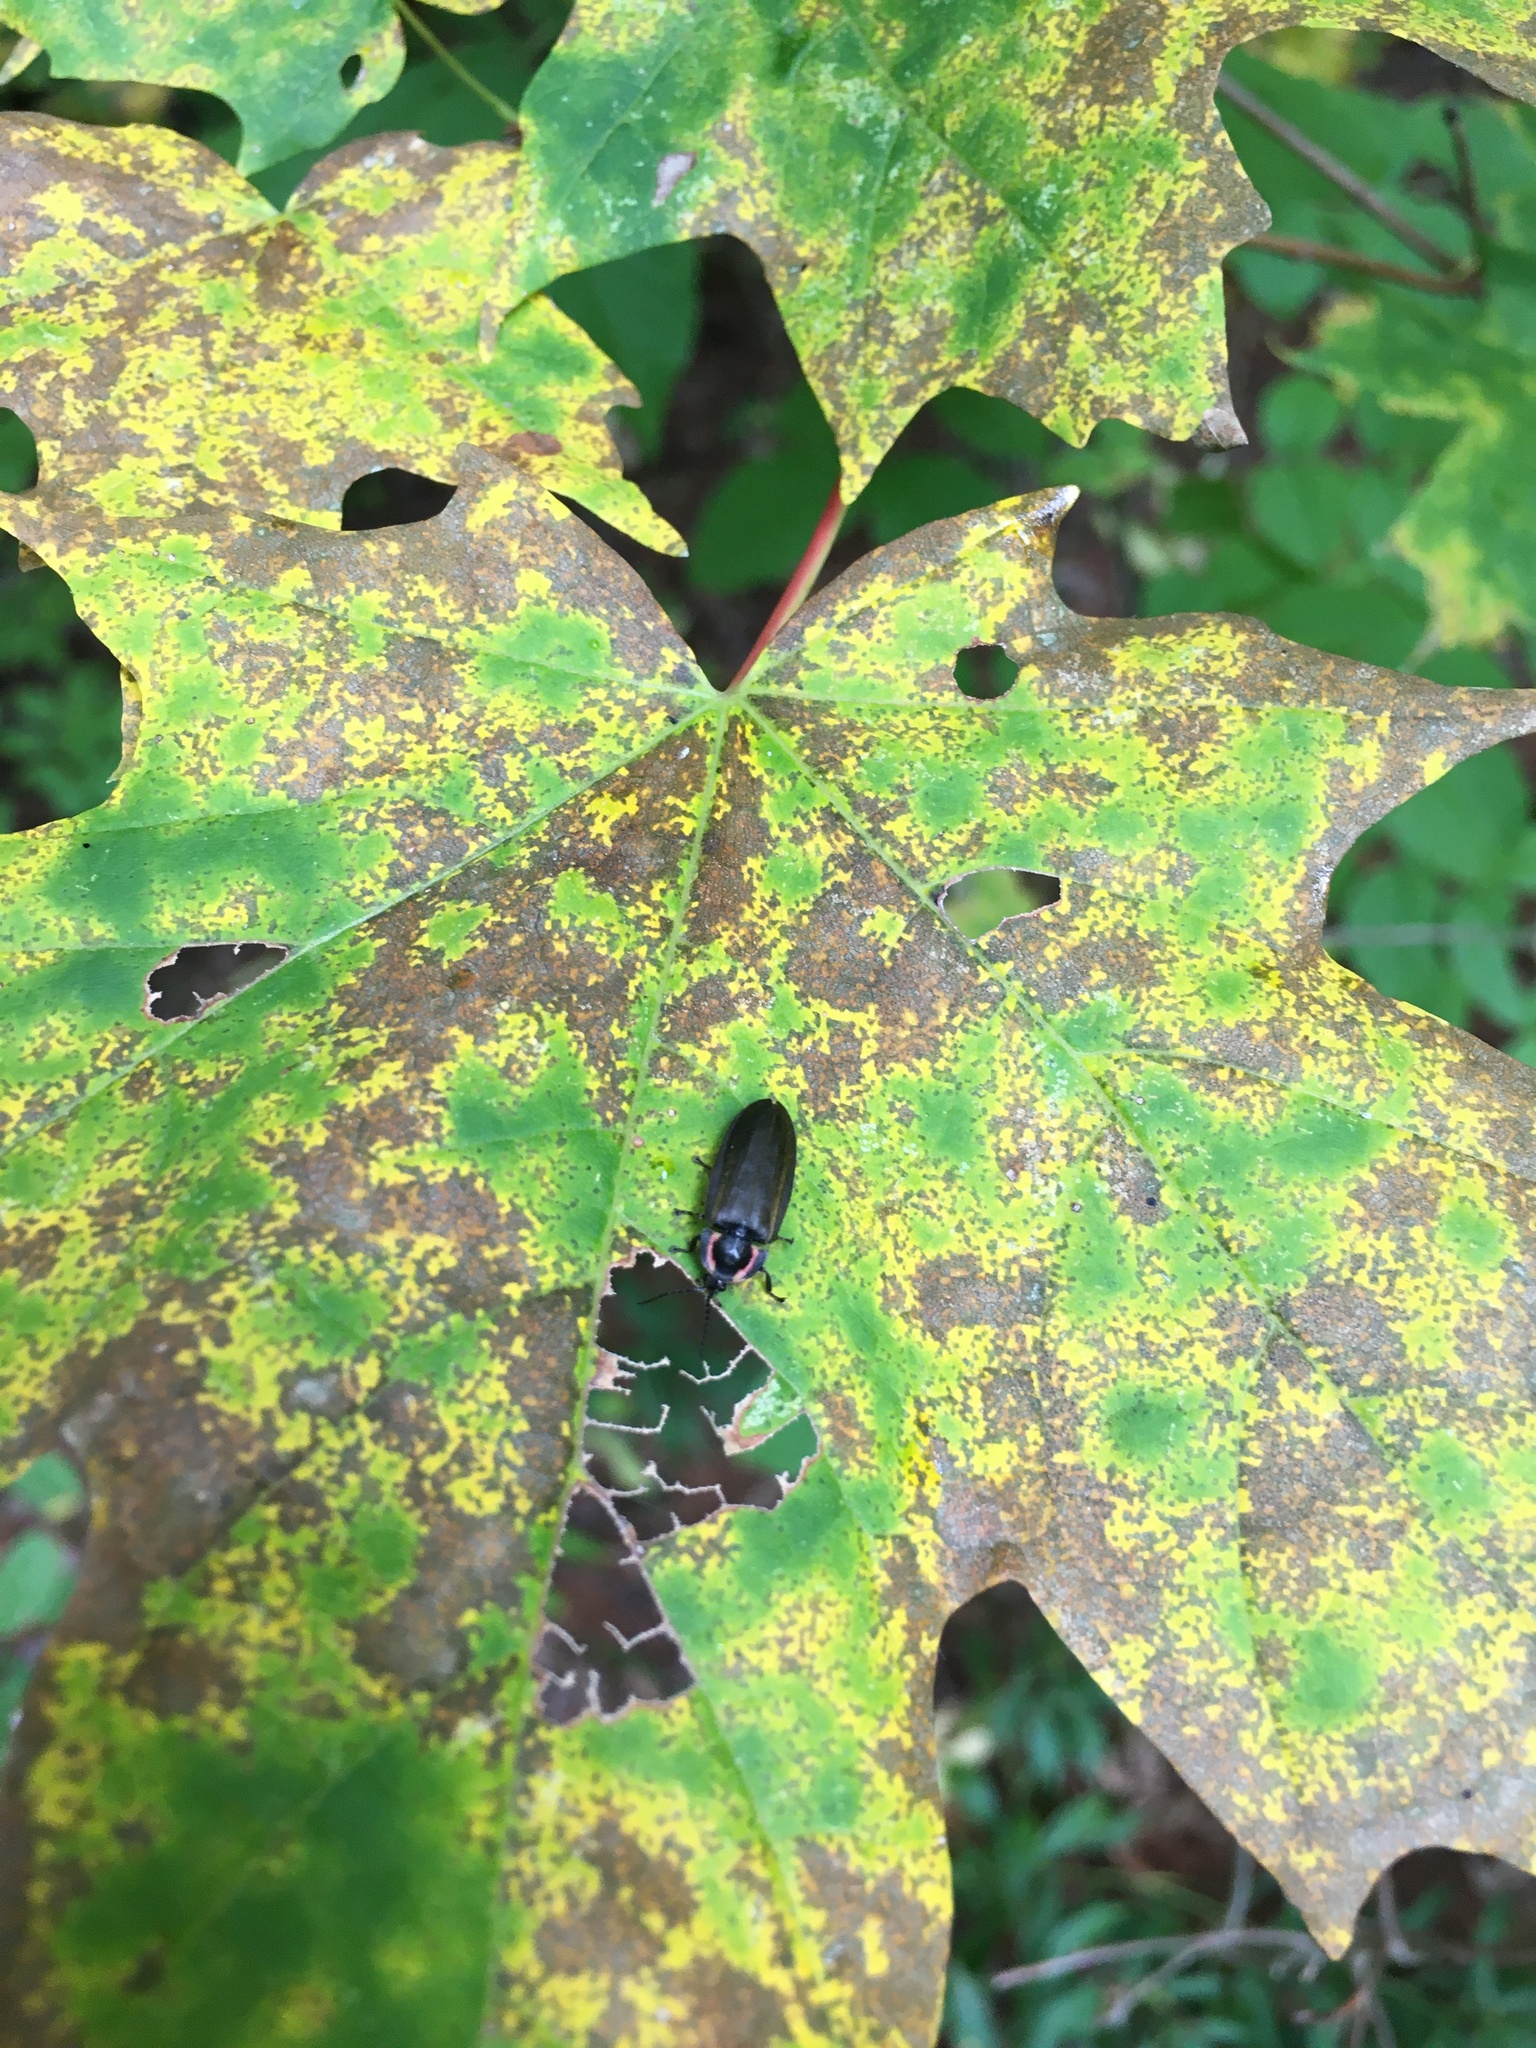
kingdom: Animalia
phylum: Arthropoda
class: Insecta
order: Coleoptera
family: Lampyridae
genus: Photinus
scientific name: Photinus corrusca
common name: Winter firefly
